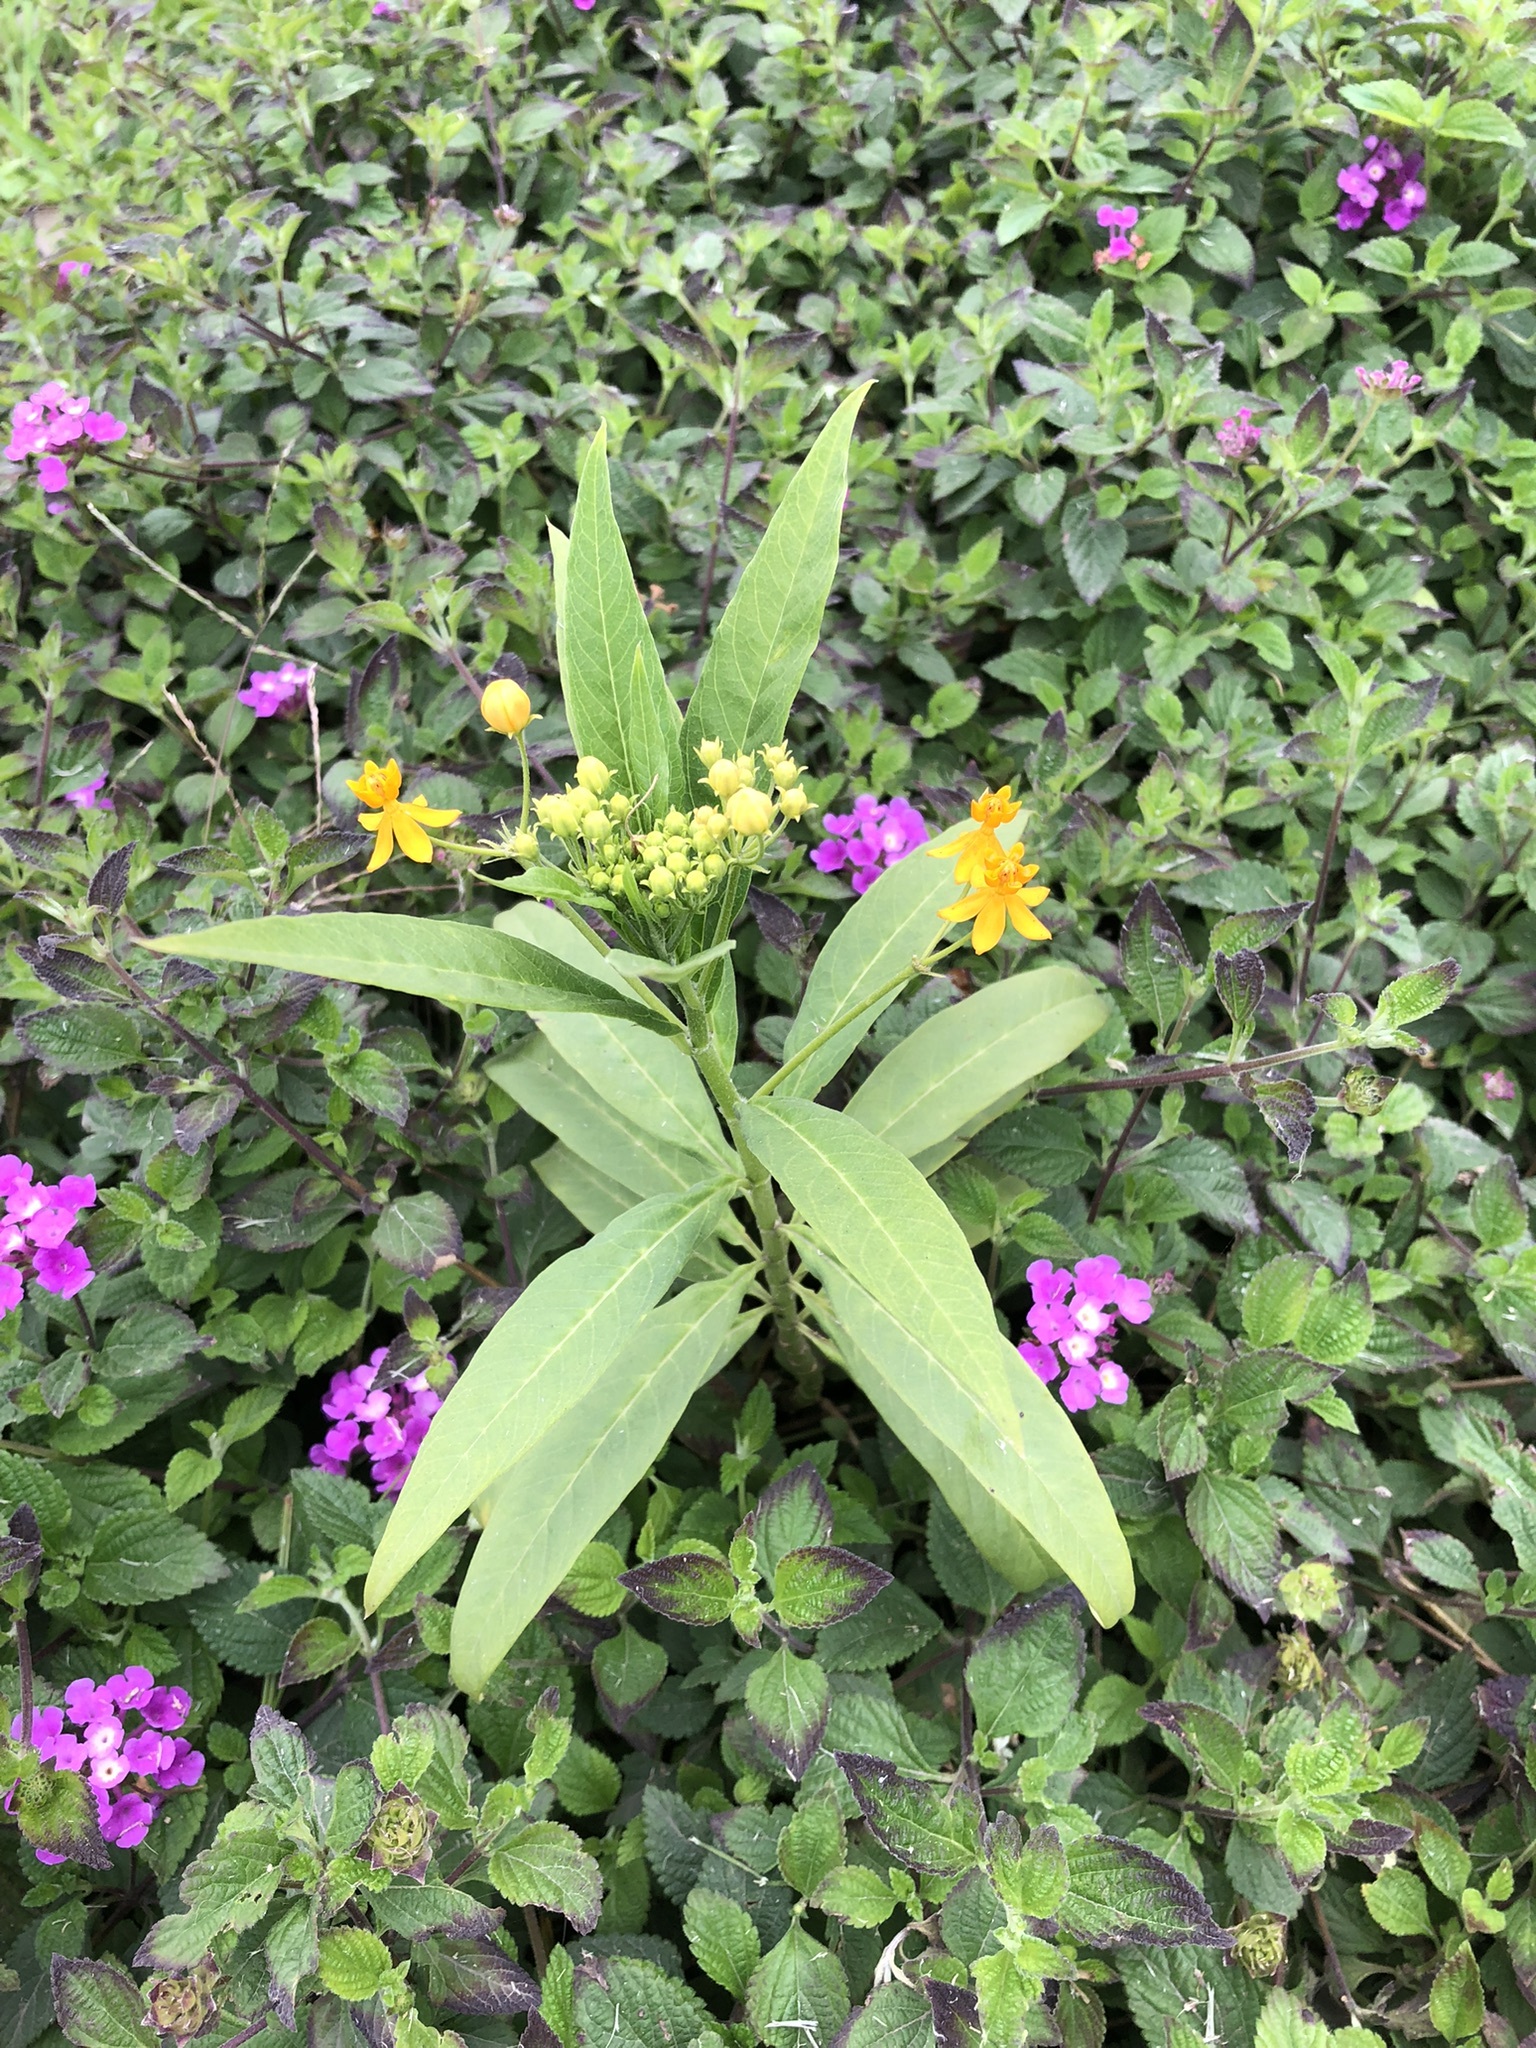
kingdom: Plantae
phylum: Tracheophyta
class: Magnoliopsida
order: Gentianales
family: Apocynaceae
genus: Asclepias
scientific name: Asclepias curassavica
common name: Bloodflower
